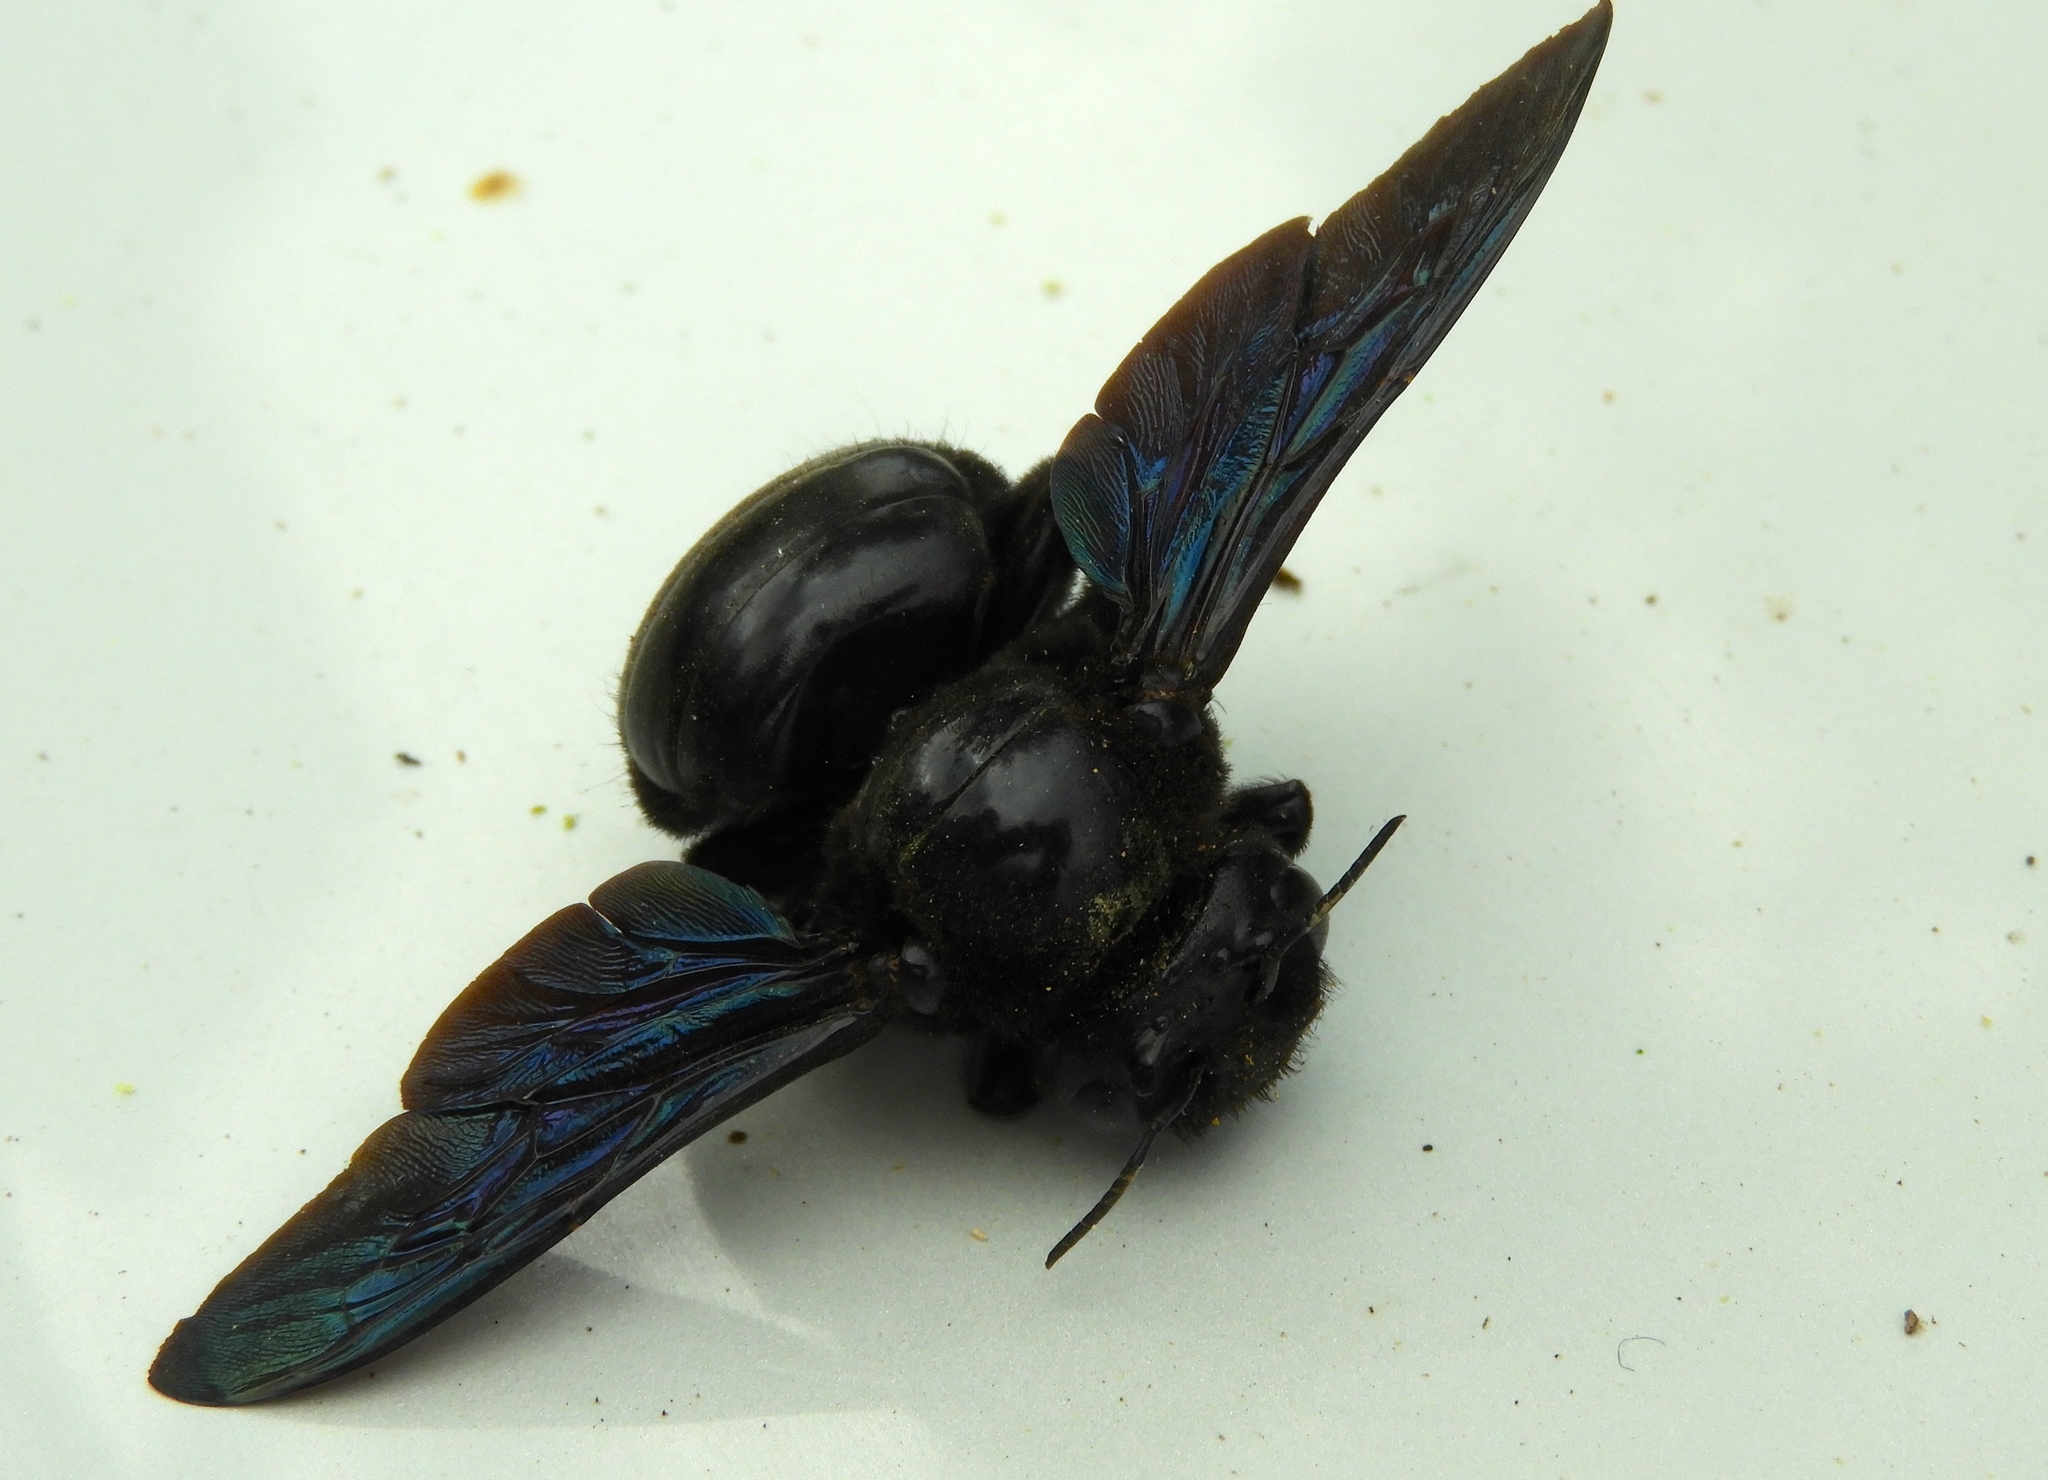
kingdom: Animalia
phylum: Arthropoda
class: Insecta
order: Hymenoptera
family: Apidae
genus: Xylocopa
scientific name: Xylocopa fimbriata
